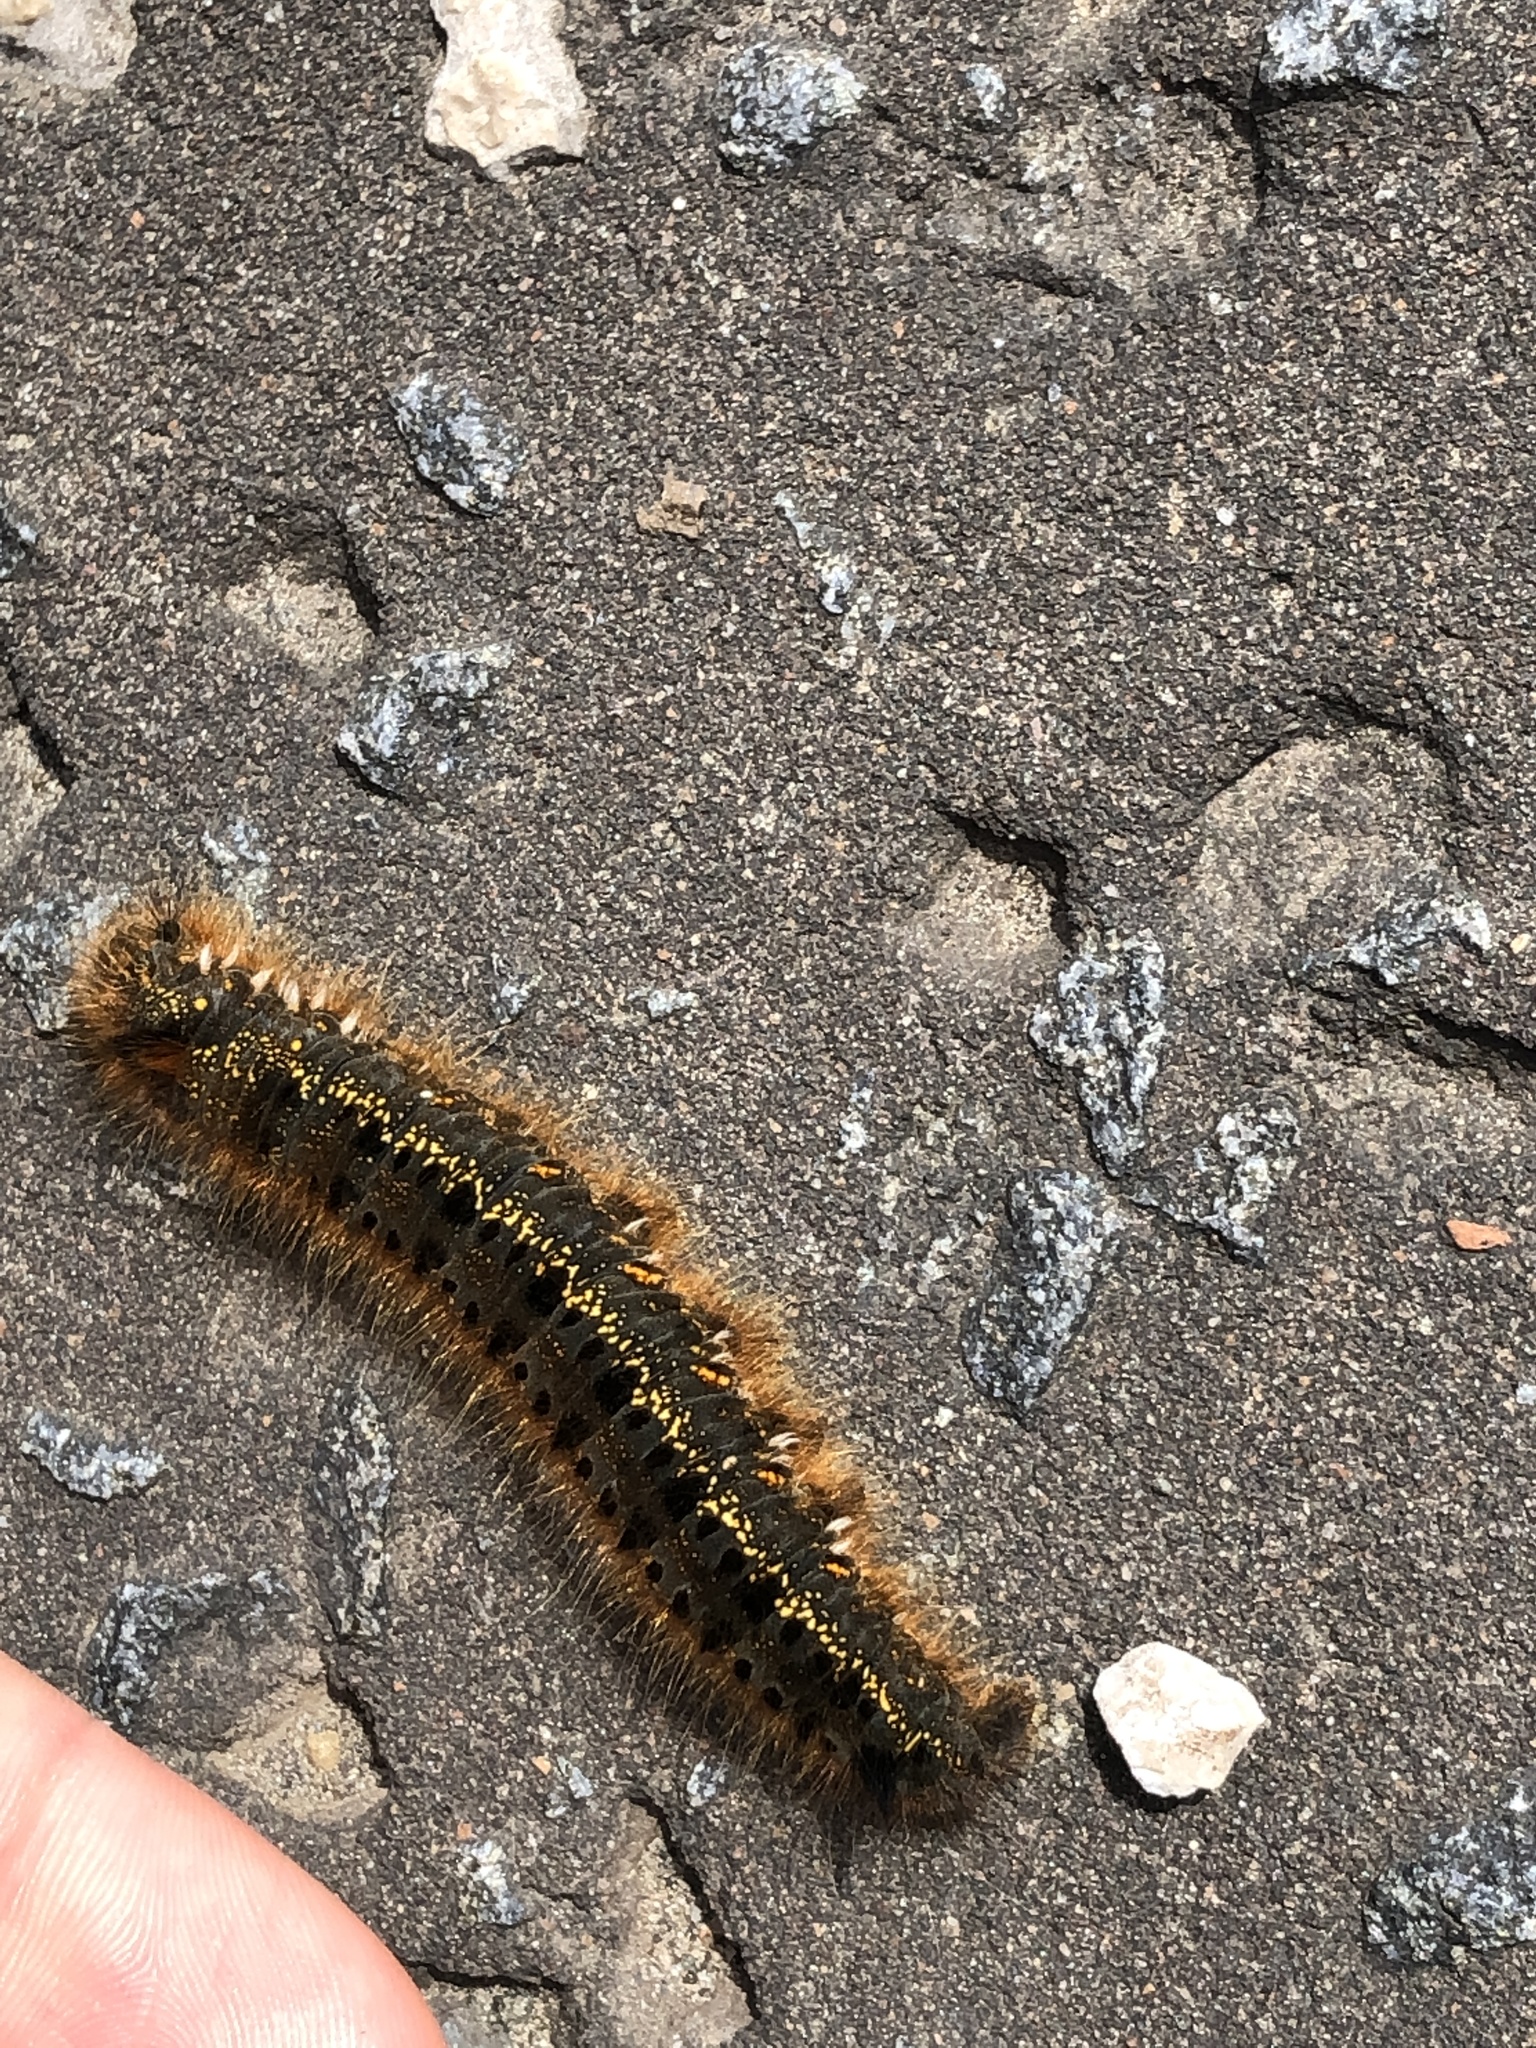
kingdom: Animalia
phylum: Arthropoda
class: Insecta
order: Lepidoptera
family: Lasiocampidae
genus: Euthrix
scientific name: Euthrix potatoria
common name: Drinker
